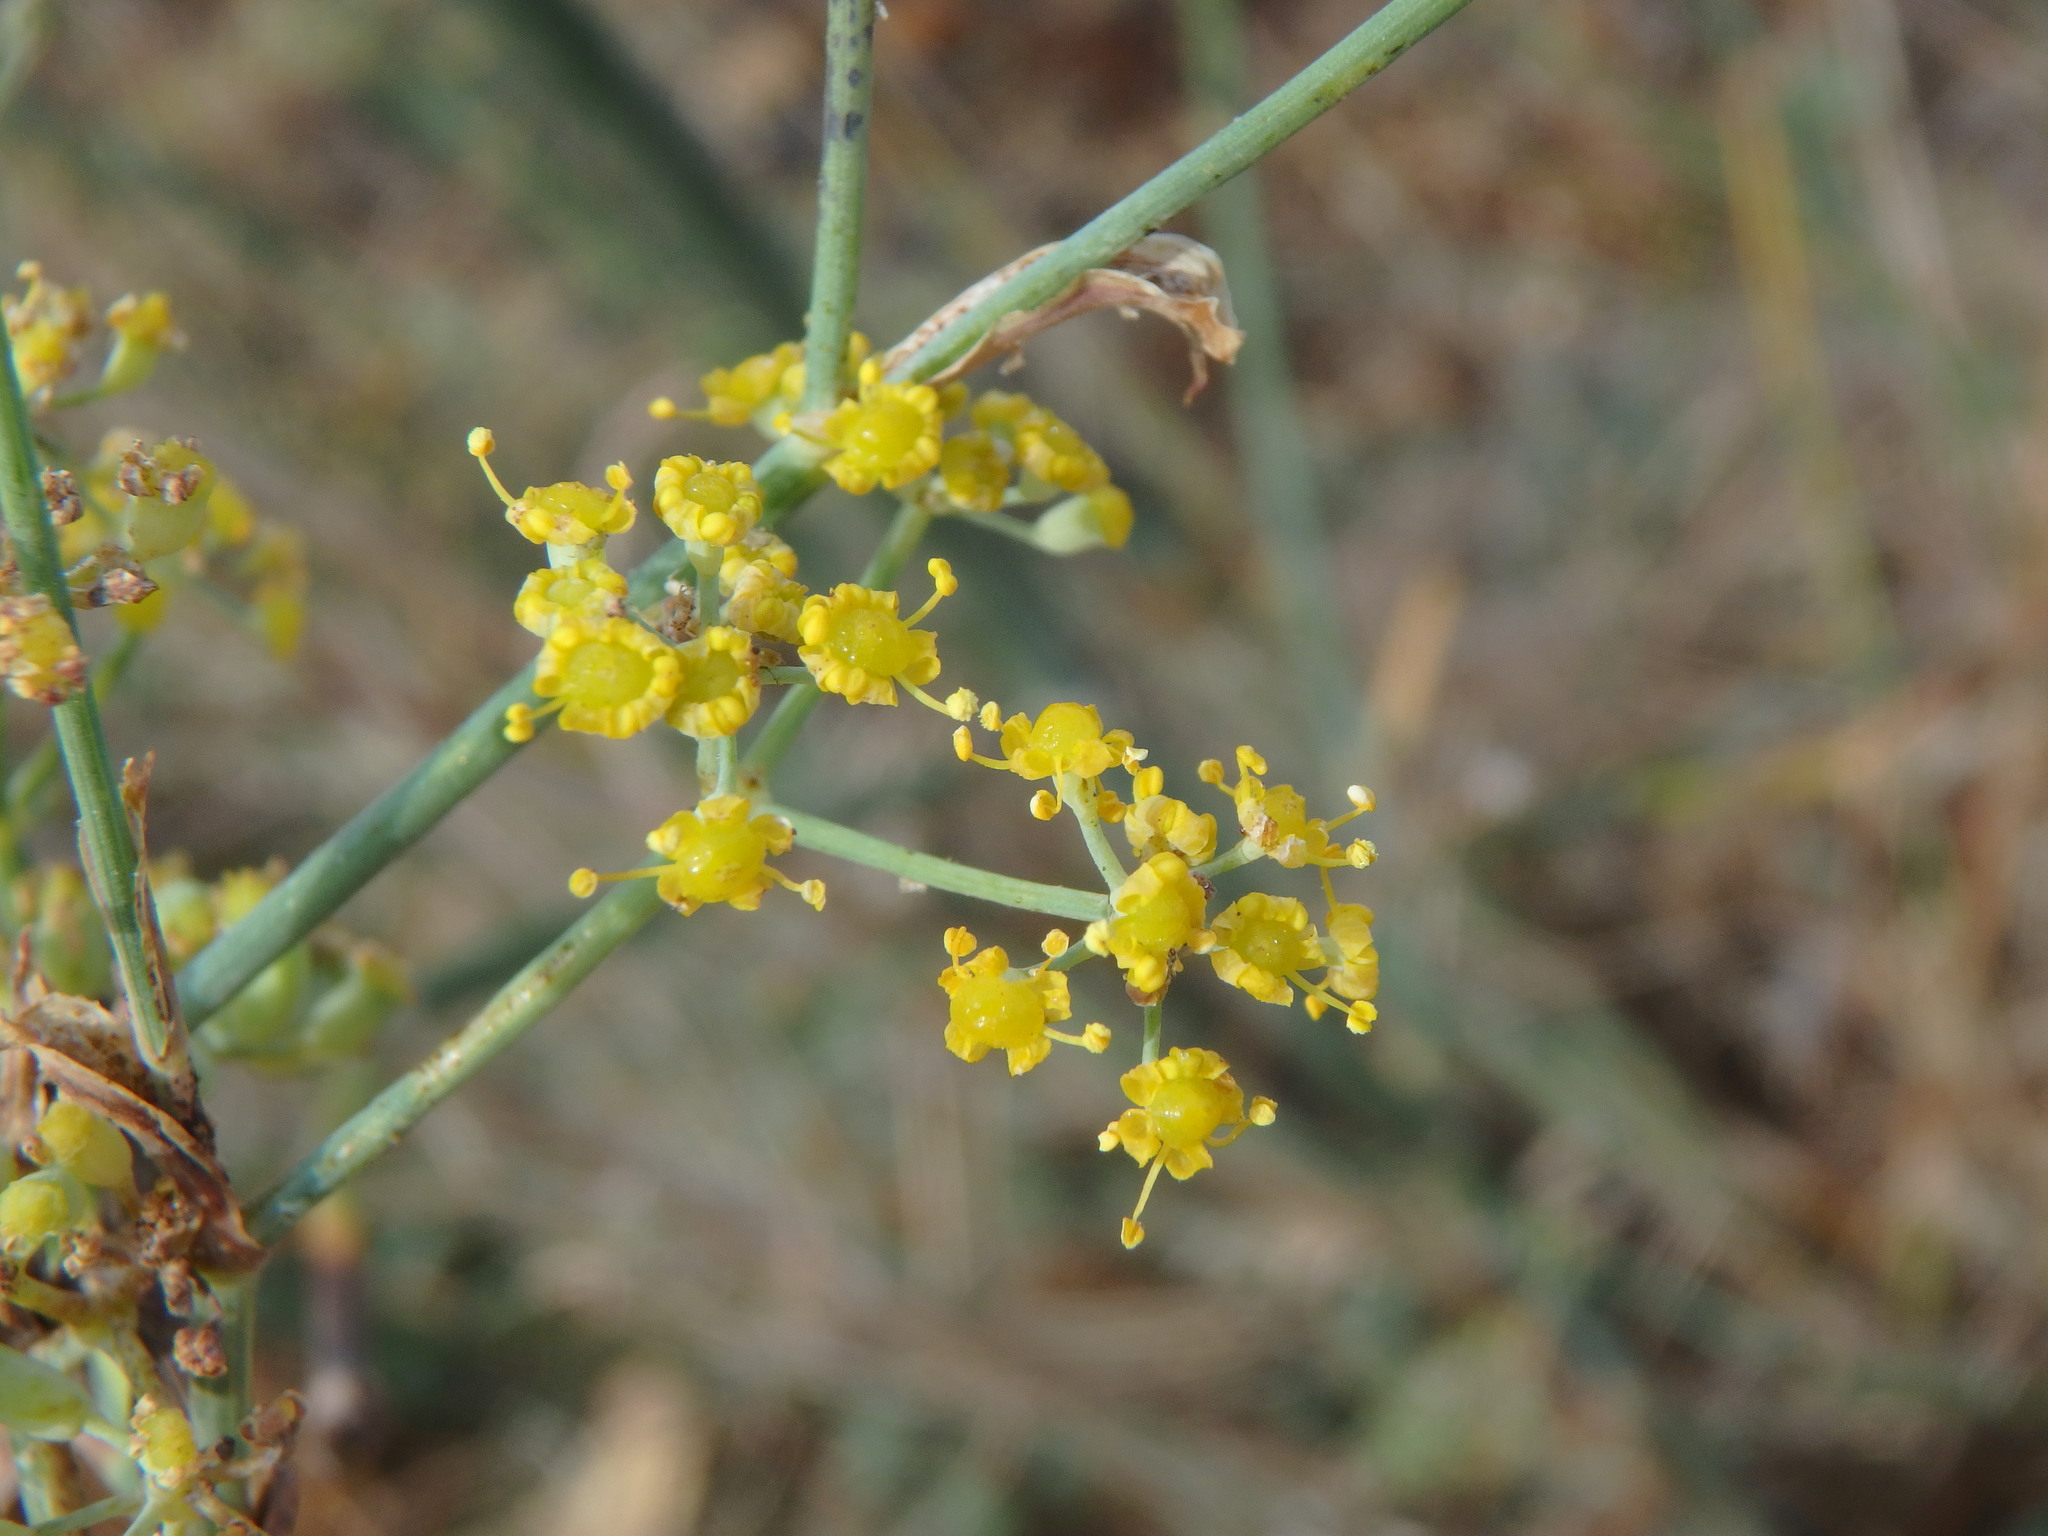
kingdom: Plantae
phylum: Tracheophyta
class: Magnoliopsida
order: Apiales
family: Apiaceae
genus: Foeniculum
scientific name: Foeniculum vulgare
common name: Fennel
